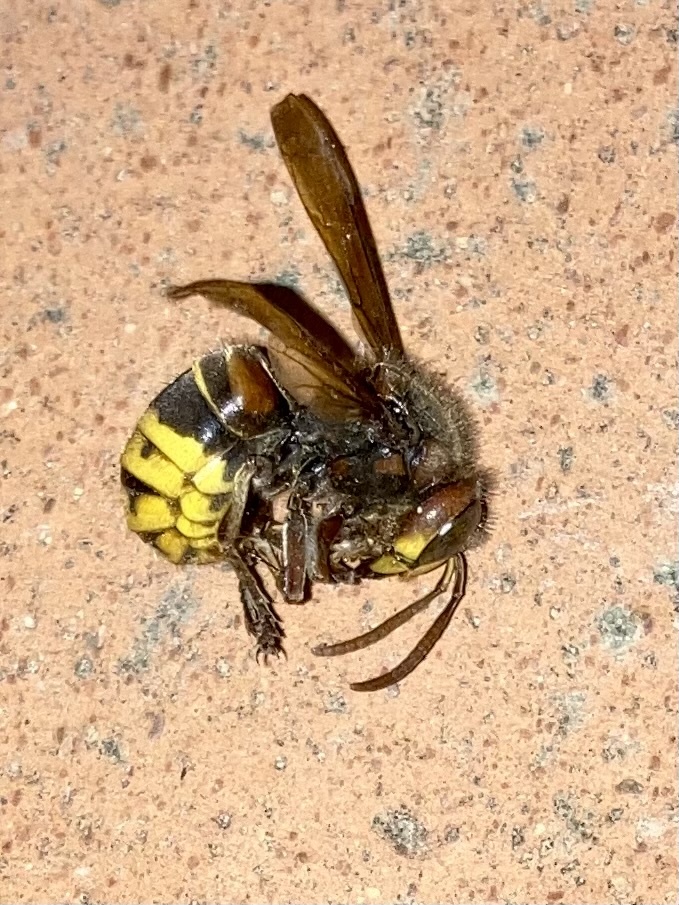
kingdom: Animalia
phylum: Arthropoda
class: Insecta
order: Hymenoptera
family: Vespidae
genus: Vespa
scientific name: Vespa crabro
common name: Hornet
